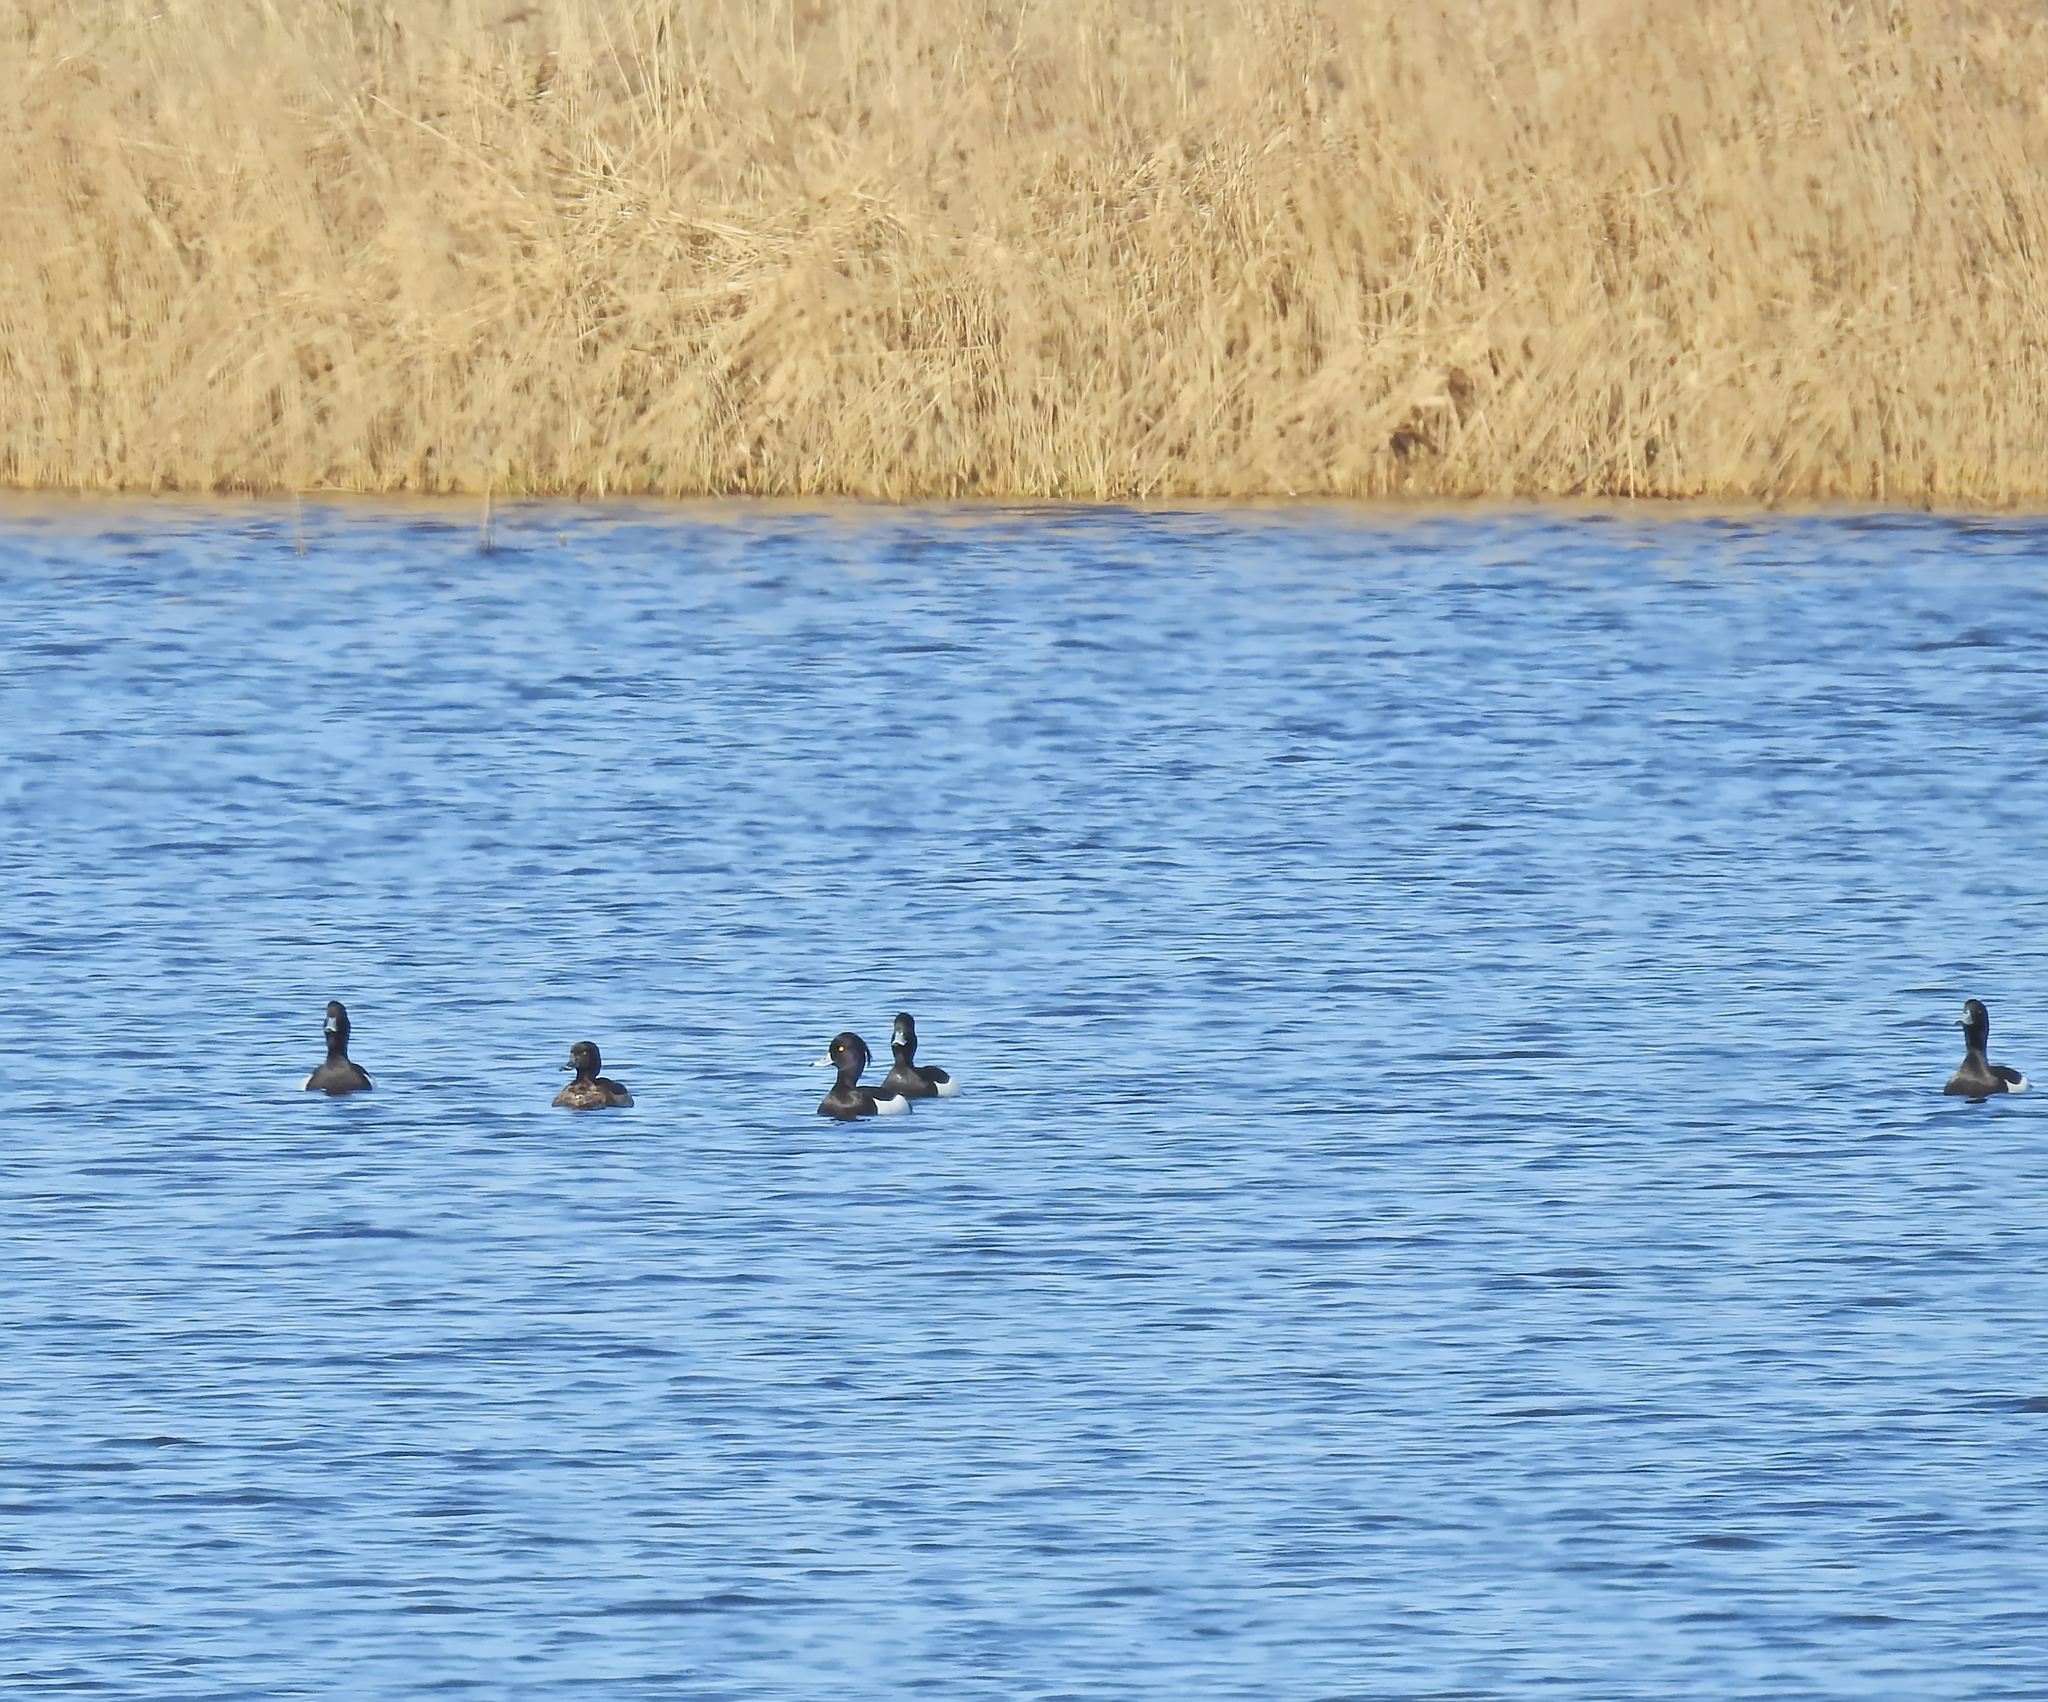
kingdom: Animalia
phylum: Chordata
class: Aves
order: Anseriformes
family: Anatidae
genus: Aythya
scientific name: Aythya fuligula
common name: Tufted duck
